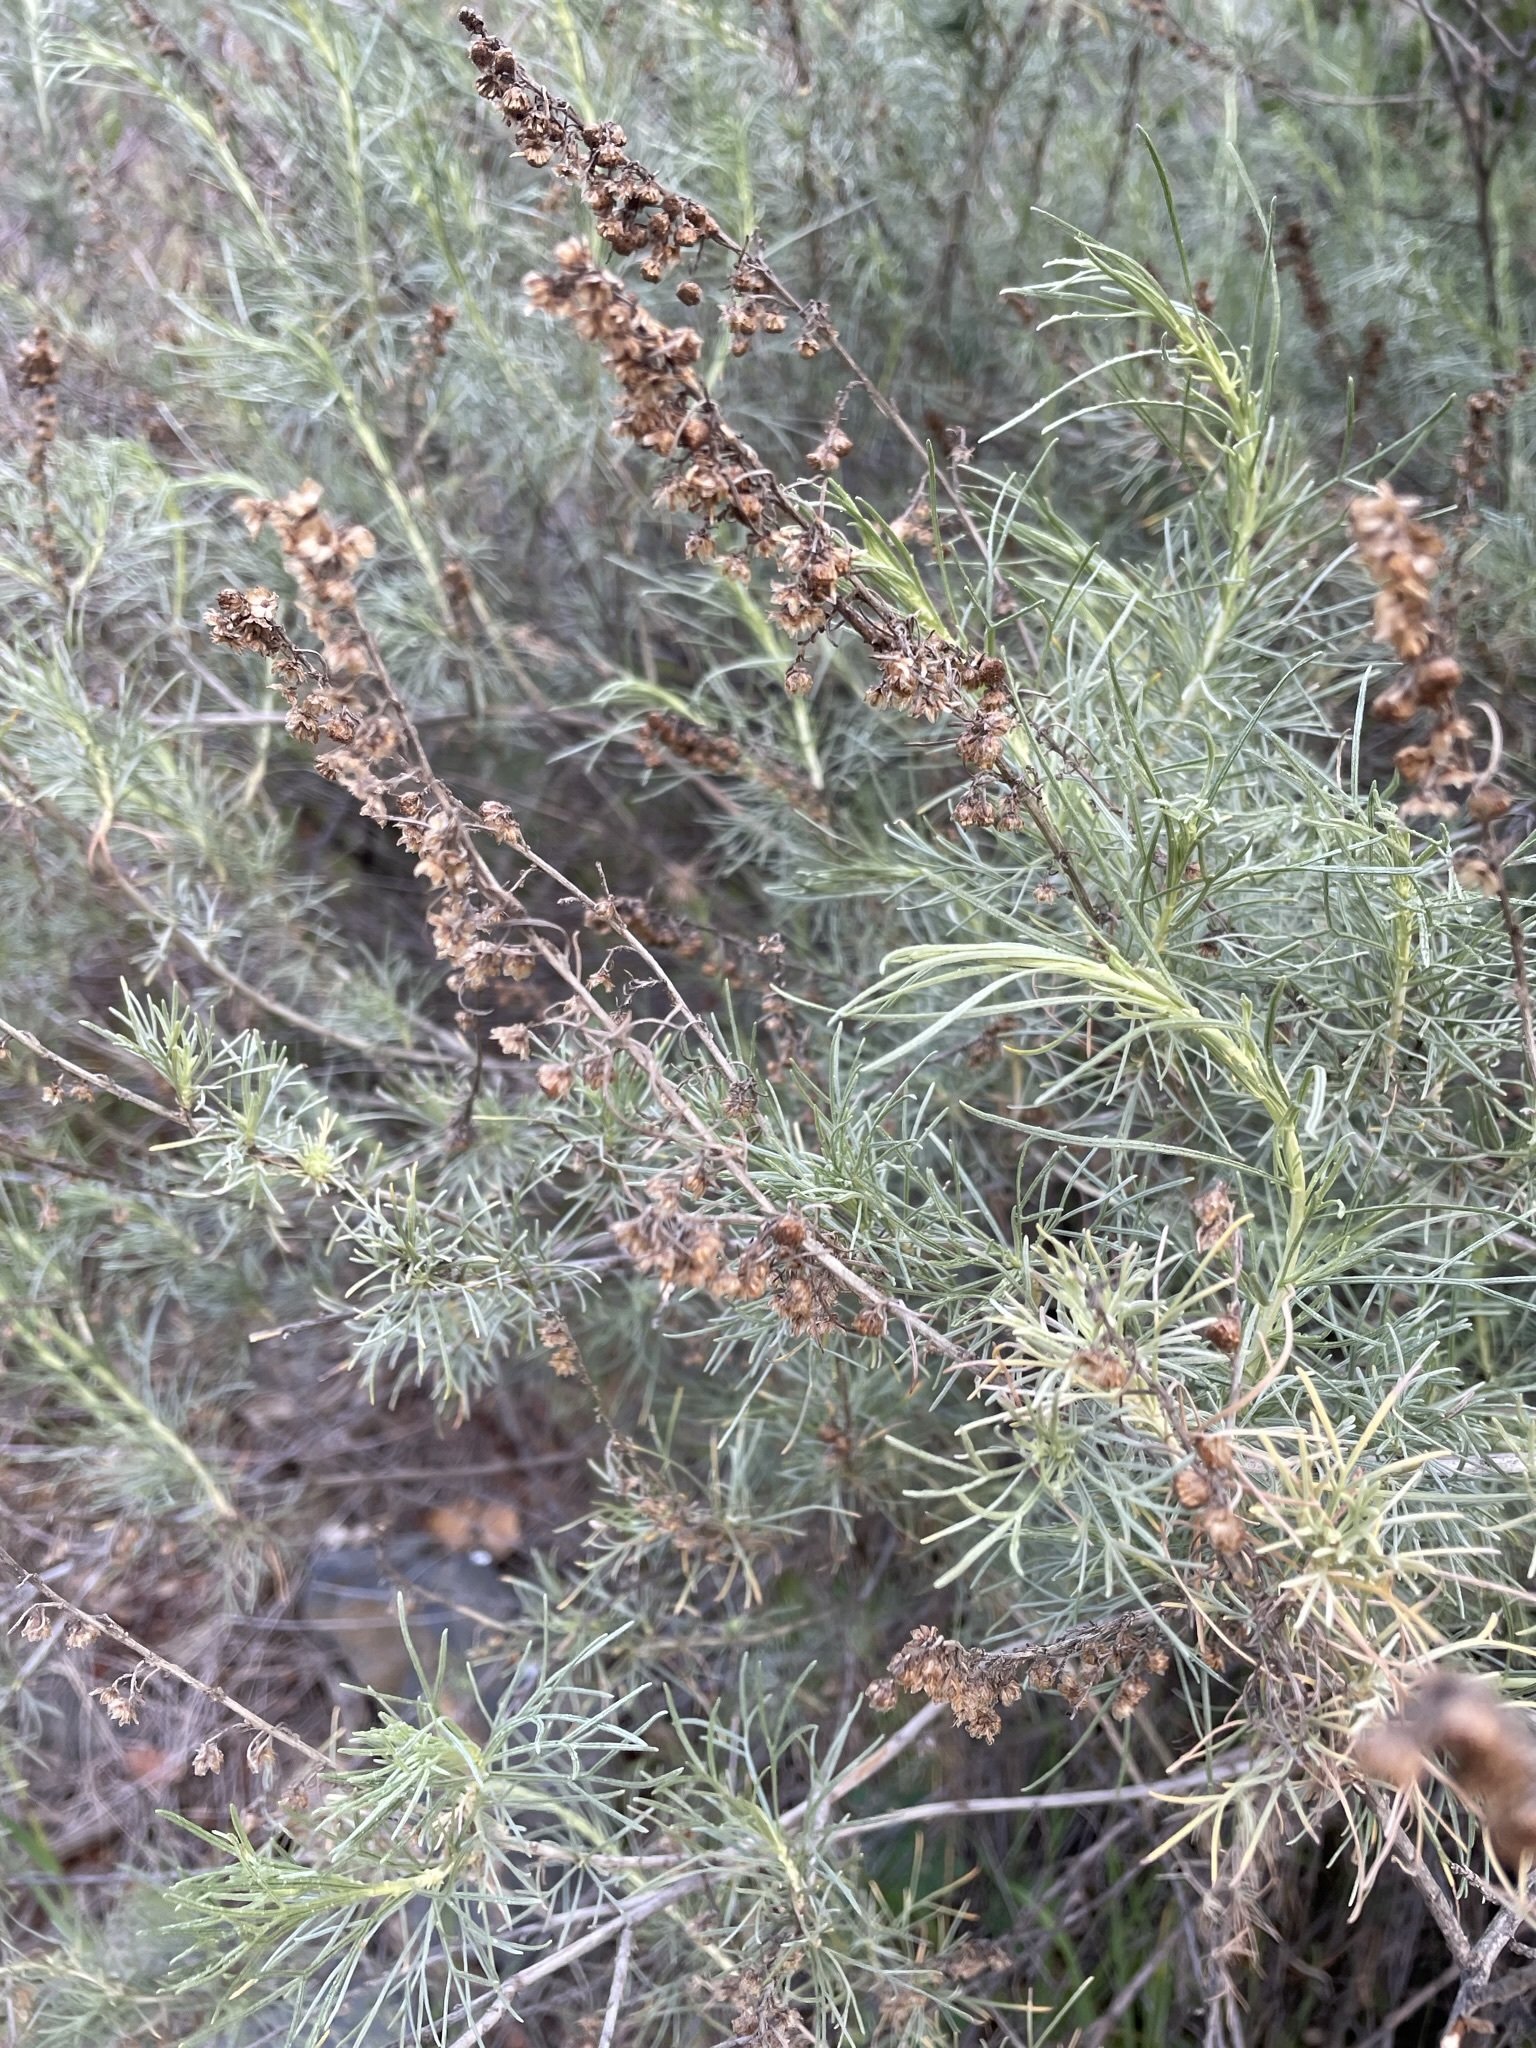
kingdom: Plantae
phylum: Tracheophyta
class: Magnoliopsida
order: Asterales
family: Asteraceae
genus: Artemisia
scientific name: Artemisia californica
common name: California sagebrush
